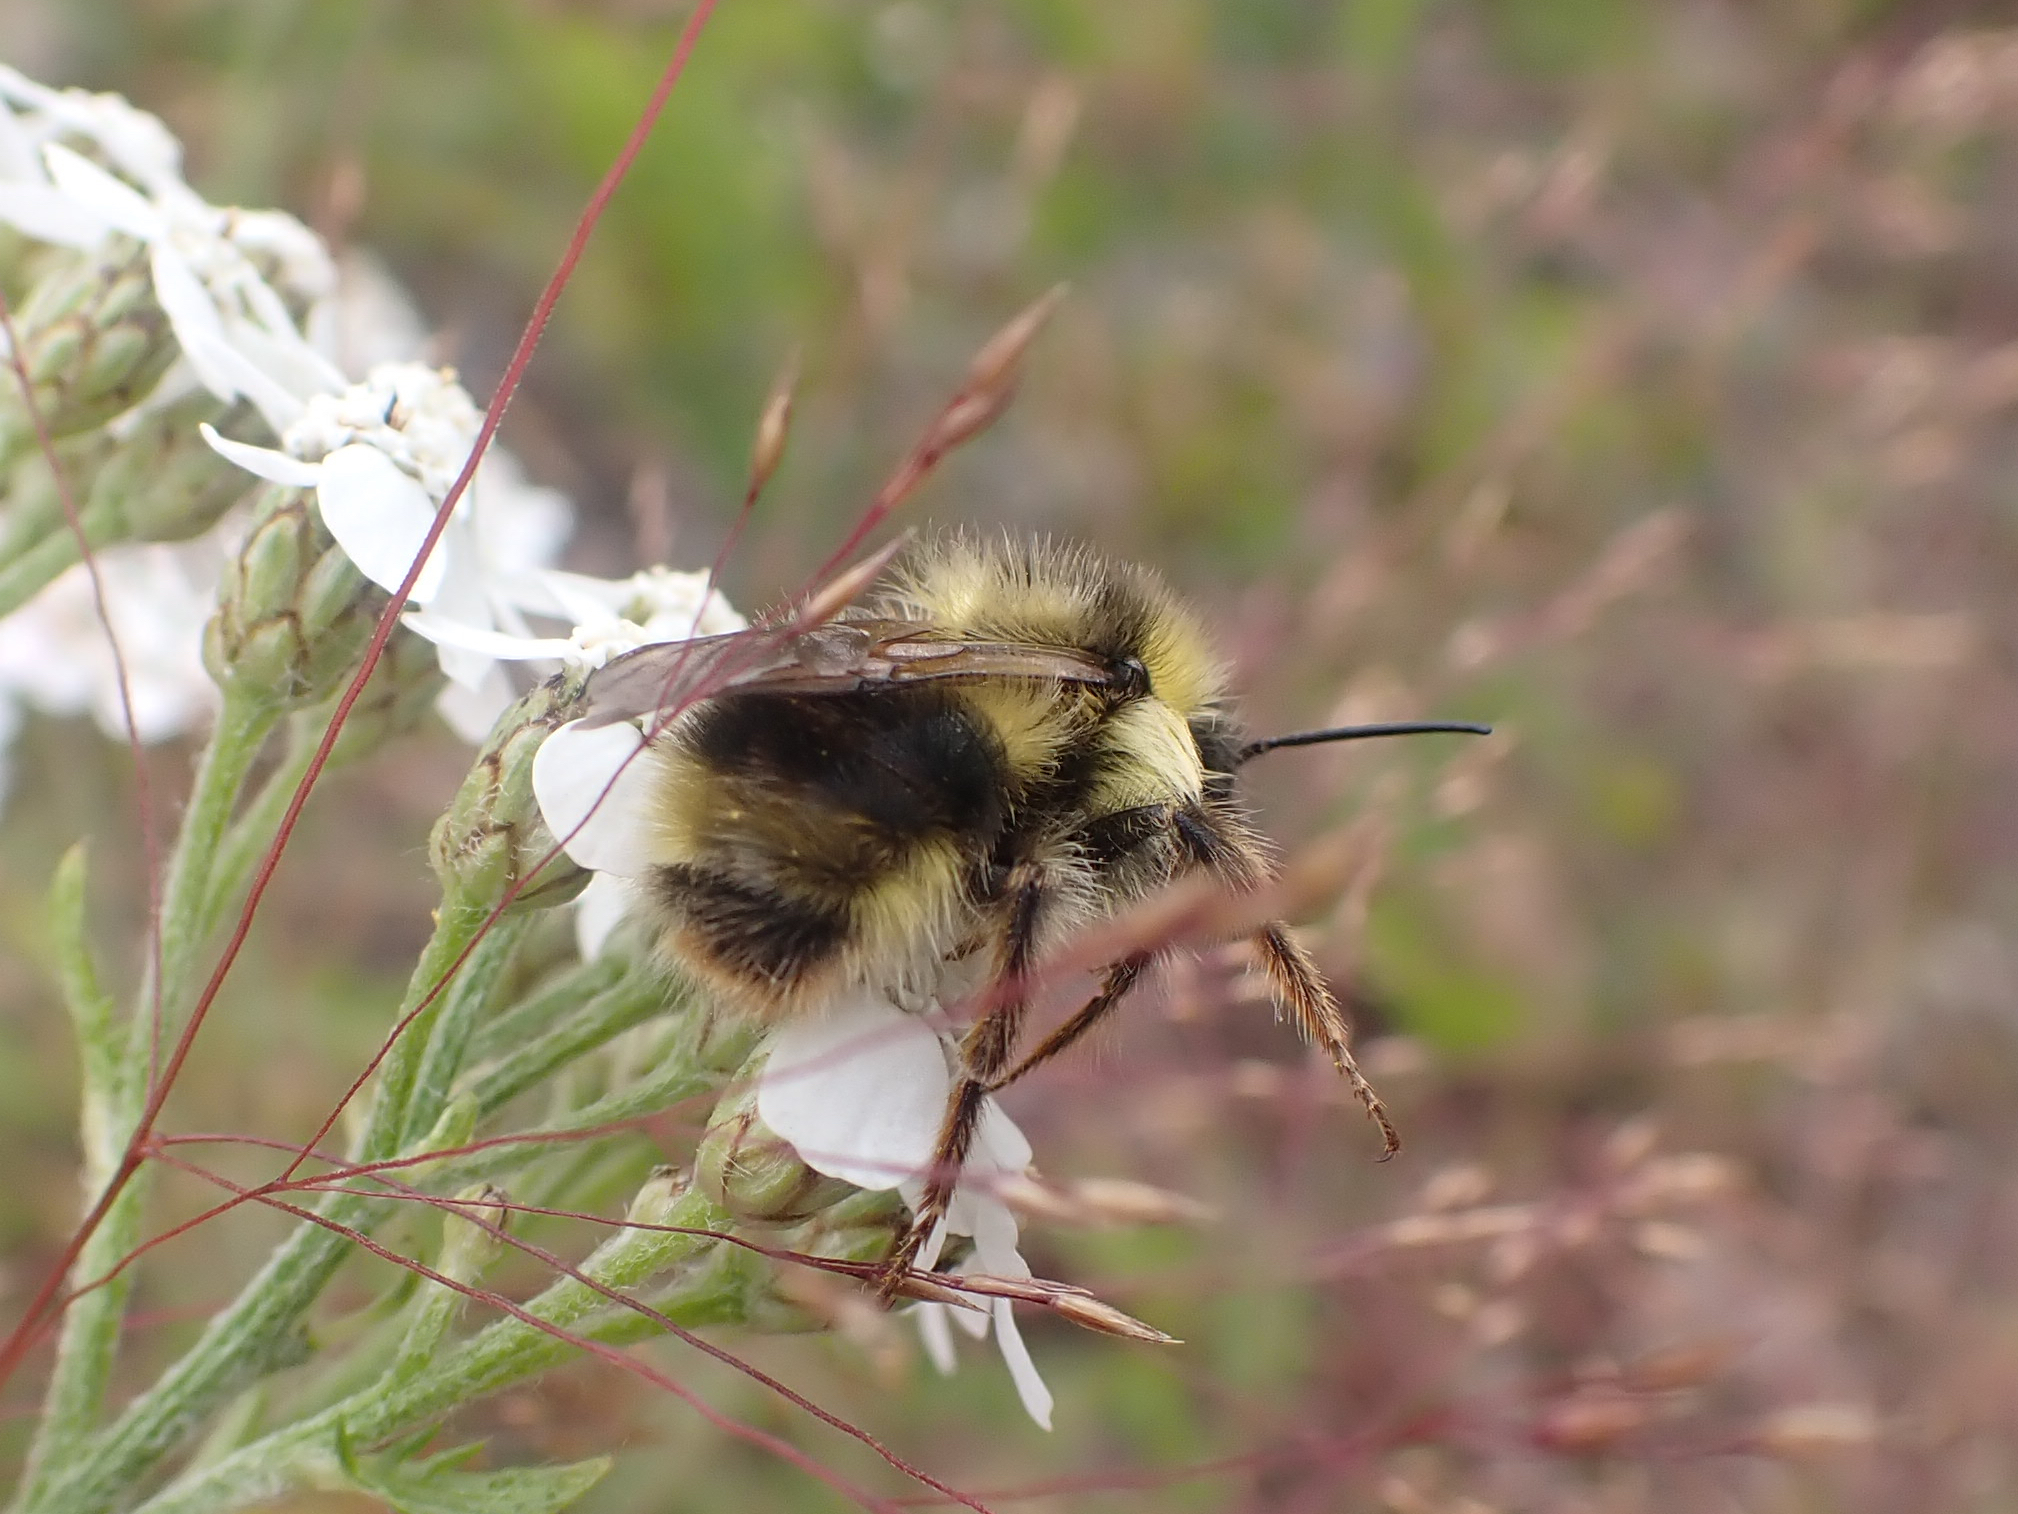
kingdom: Animalia
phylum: Arthropoda
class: Insecta
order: Hymenoptera
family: Apidae
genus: Bombus
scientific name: Bombus flavidus
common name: Fernald cuckoo bumble bee
